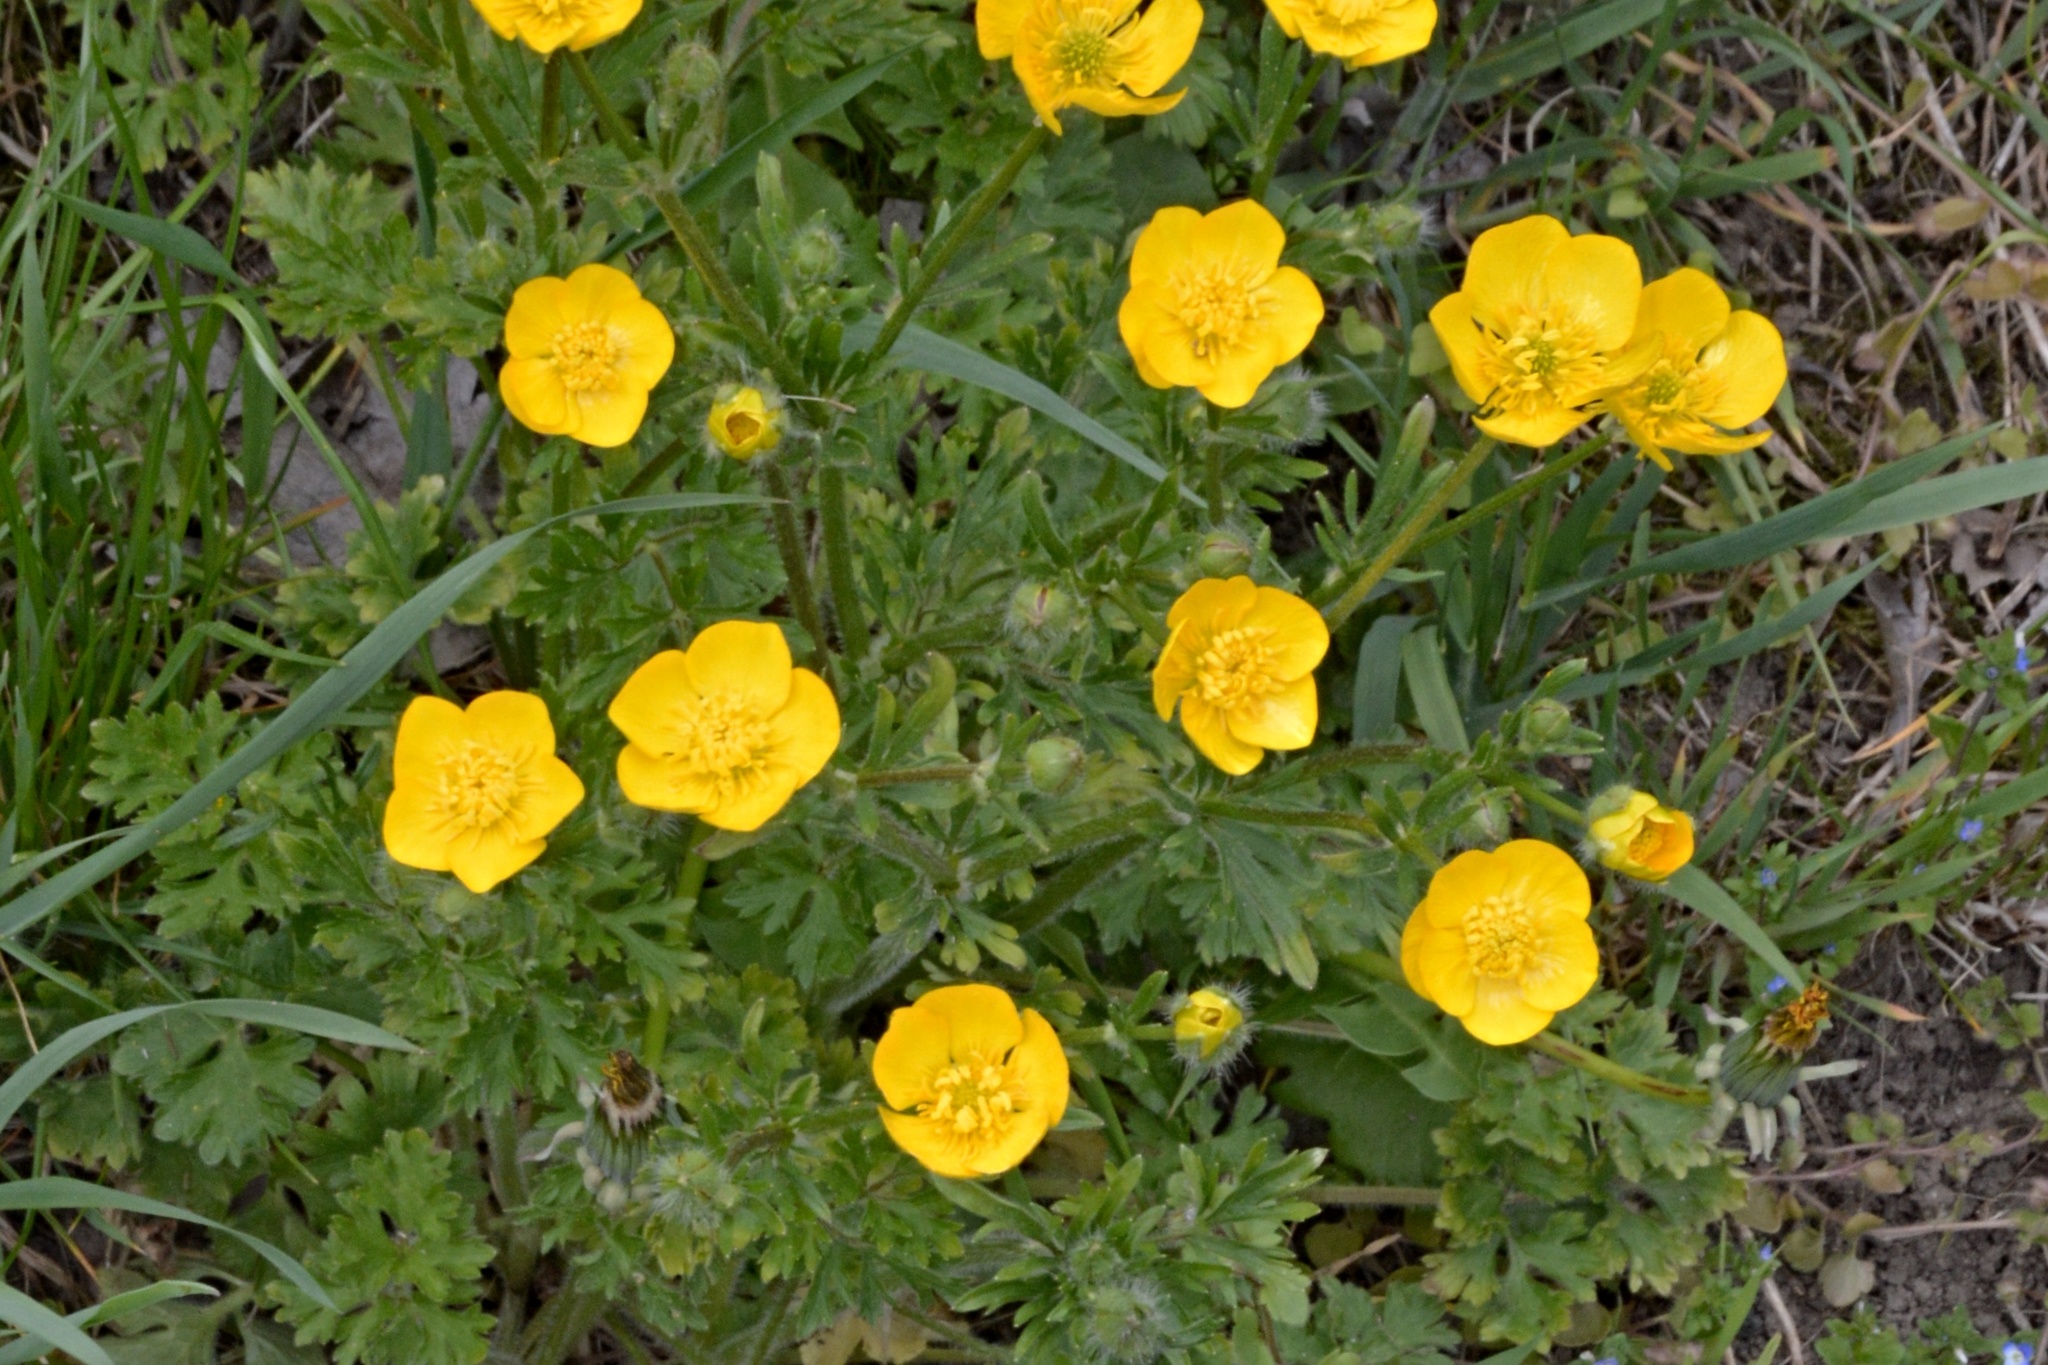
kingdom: Plantae
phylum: Tracheophyta
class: Magnoliopsida
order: Ranunculales
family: Ranunculaceae
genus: Ranunculus
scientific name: Ranunculus bulbosus
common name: Bulbous buttercup
